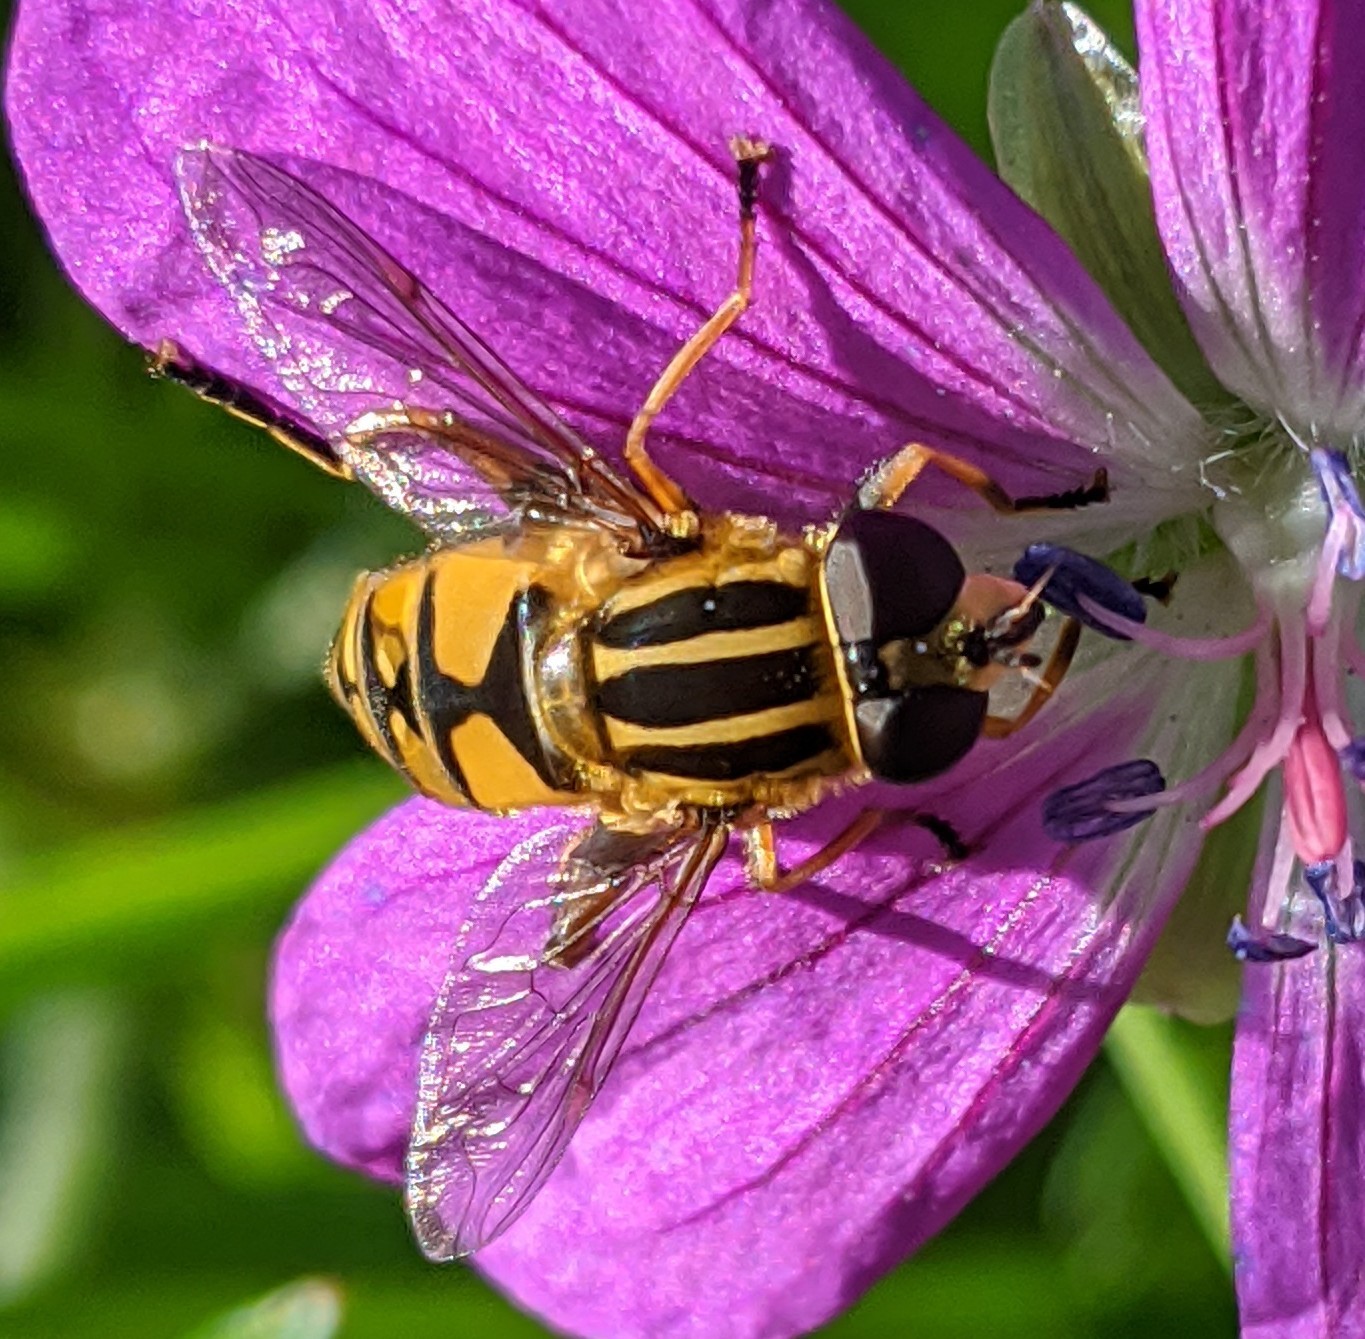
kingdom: Animalia
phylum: Arthropoda
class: Insecta
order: Diptera
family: Syrphidae
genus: Helophilus
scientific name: Helophilus pendulus
